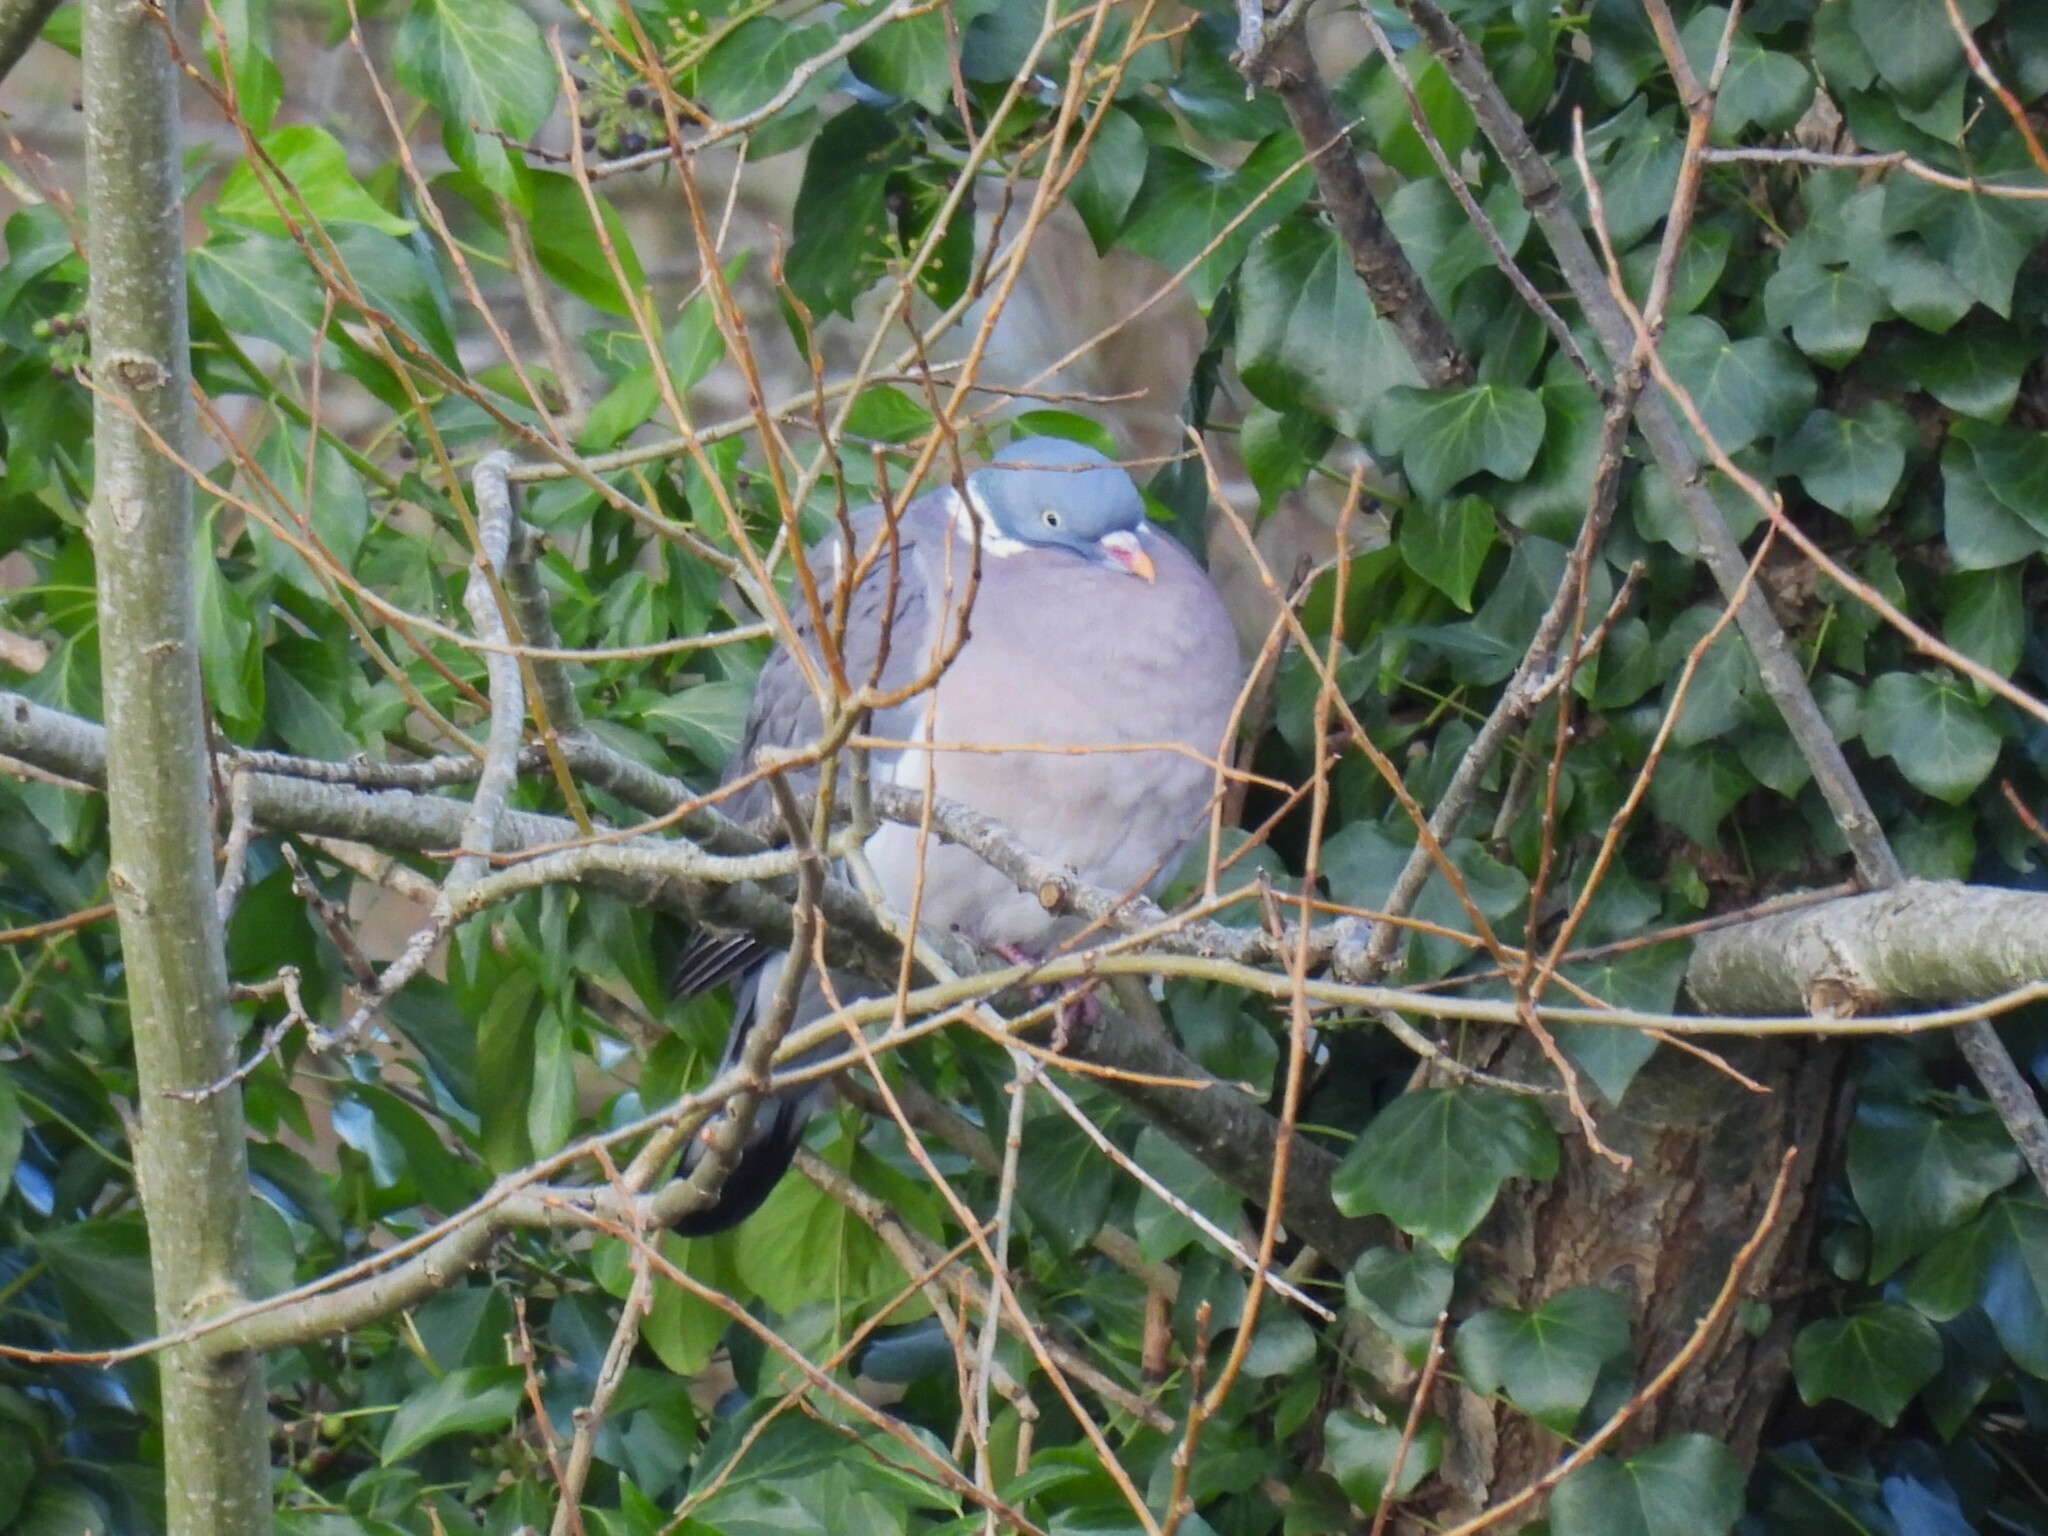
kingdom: Animalia
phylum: Chordata
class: Aves
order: Columbiformes
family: Columbidae
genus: Columba
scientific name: Columba palumbus
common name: Common wood pigeon
